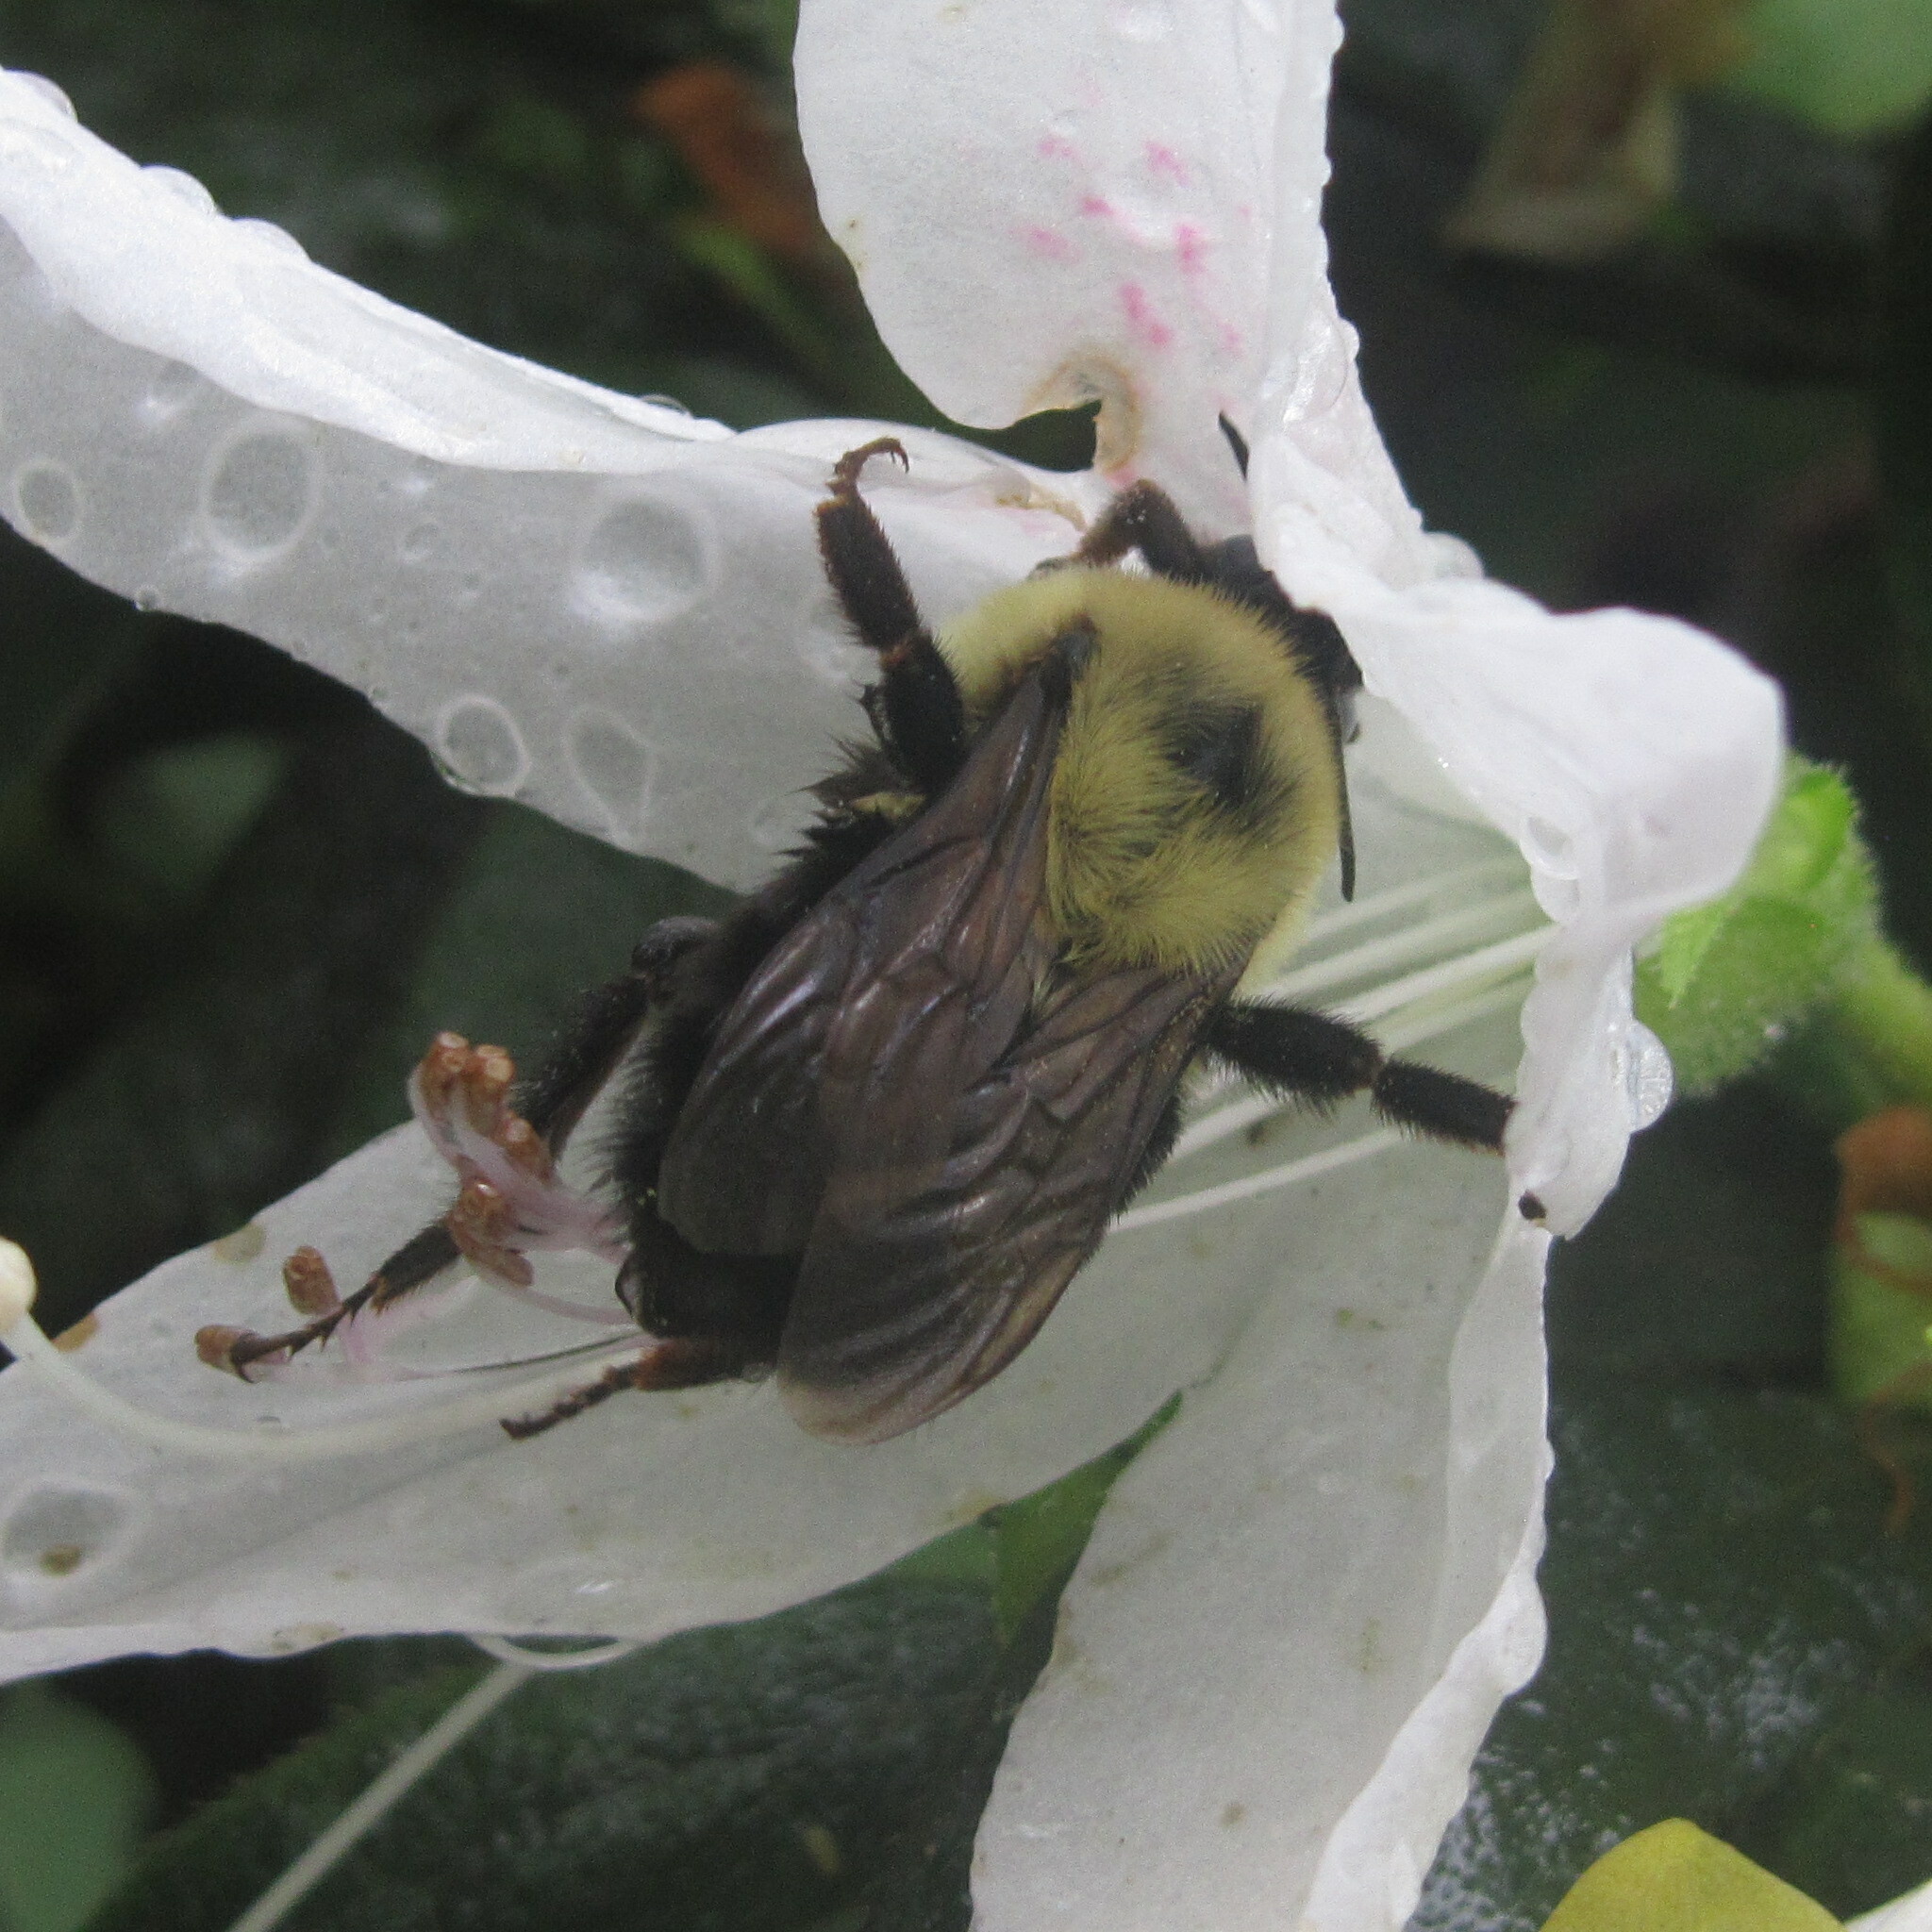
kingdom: Animalia
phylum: Arthropoda
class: Insecta
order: Hymenoptera
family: Apidae
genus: Bombus
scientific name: Bombus bimaculatus
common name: Two-spotted bumble bee
